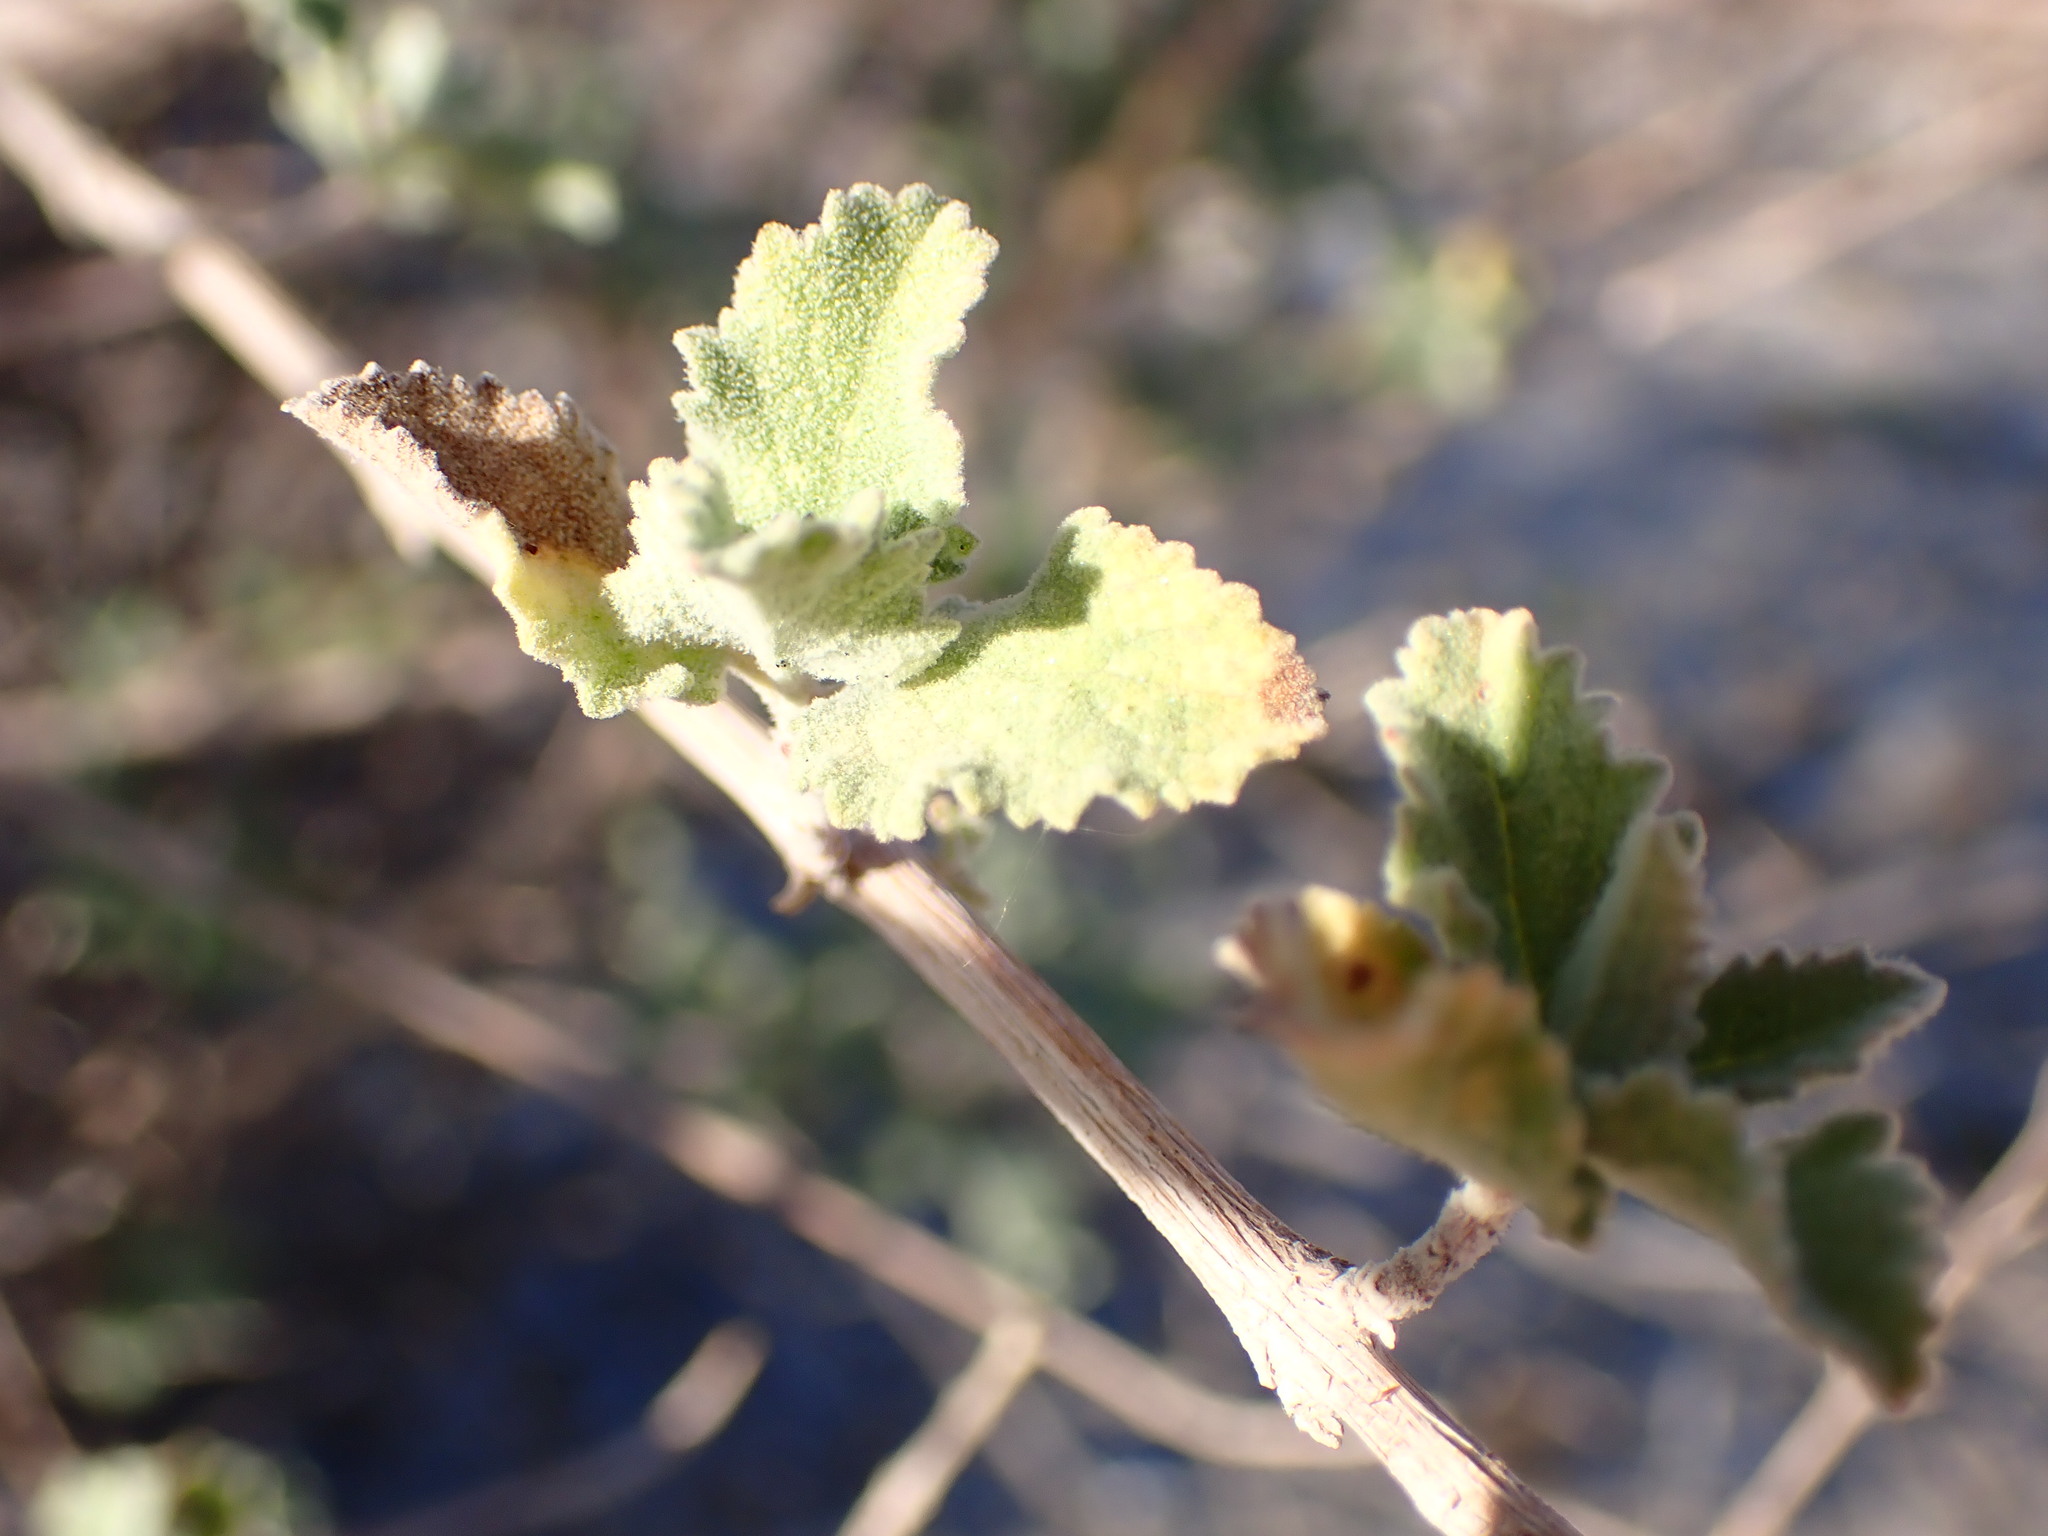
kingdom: Plantae
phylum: Tracheophyta
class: Magnoliopsida
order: Lamiales
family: Lamiaceae
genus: Condea
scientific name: Condea emoryi
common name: Chia
